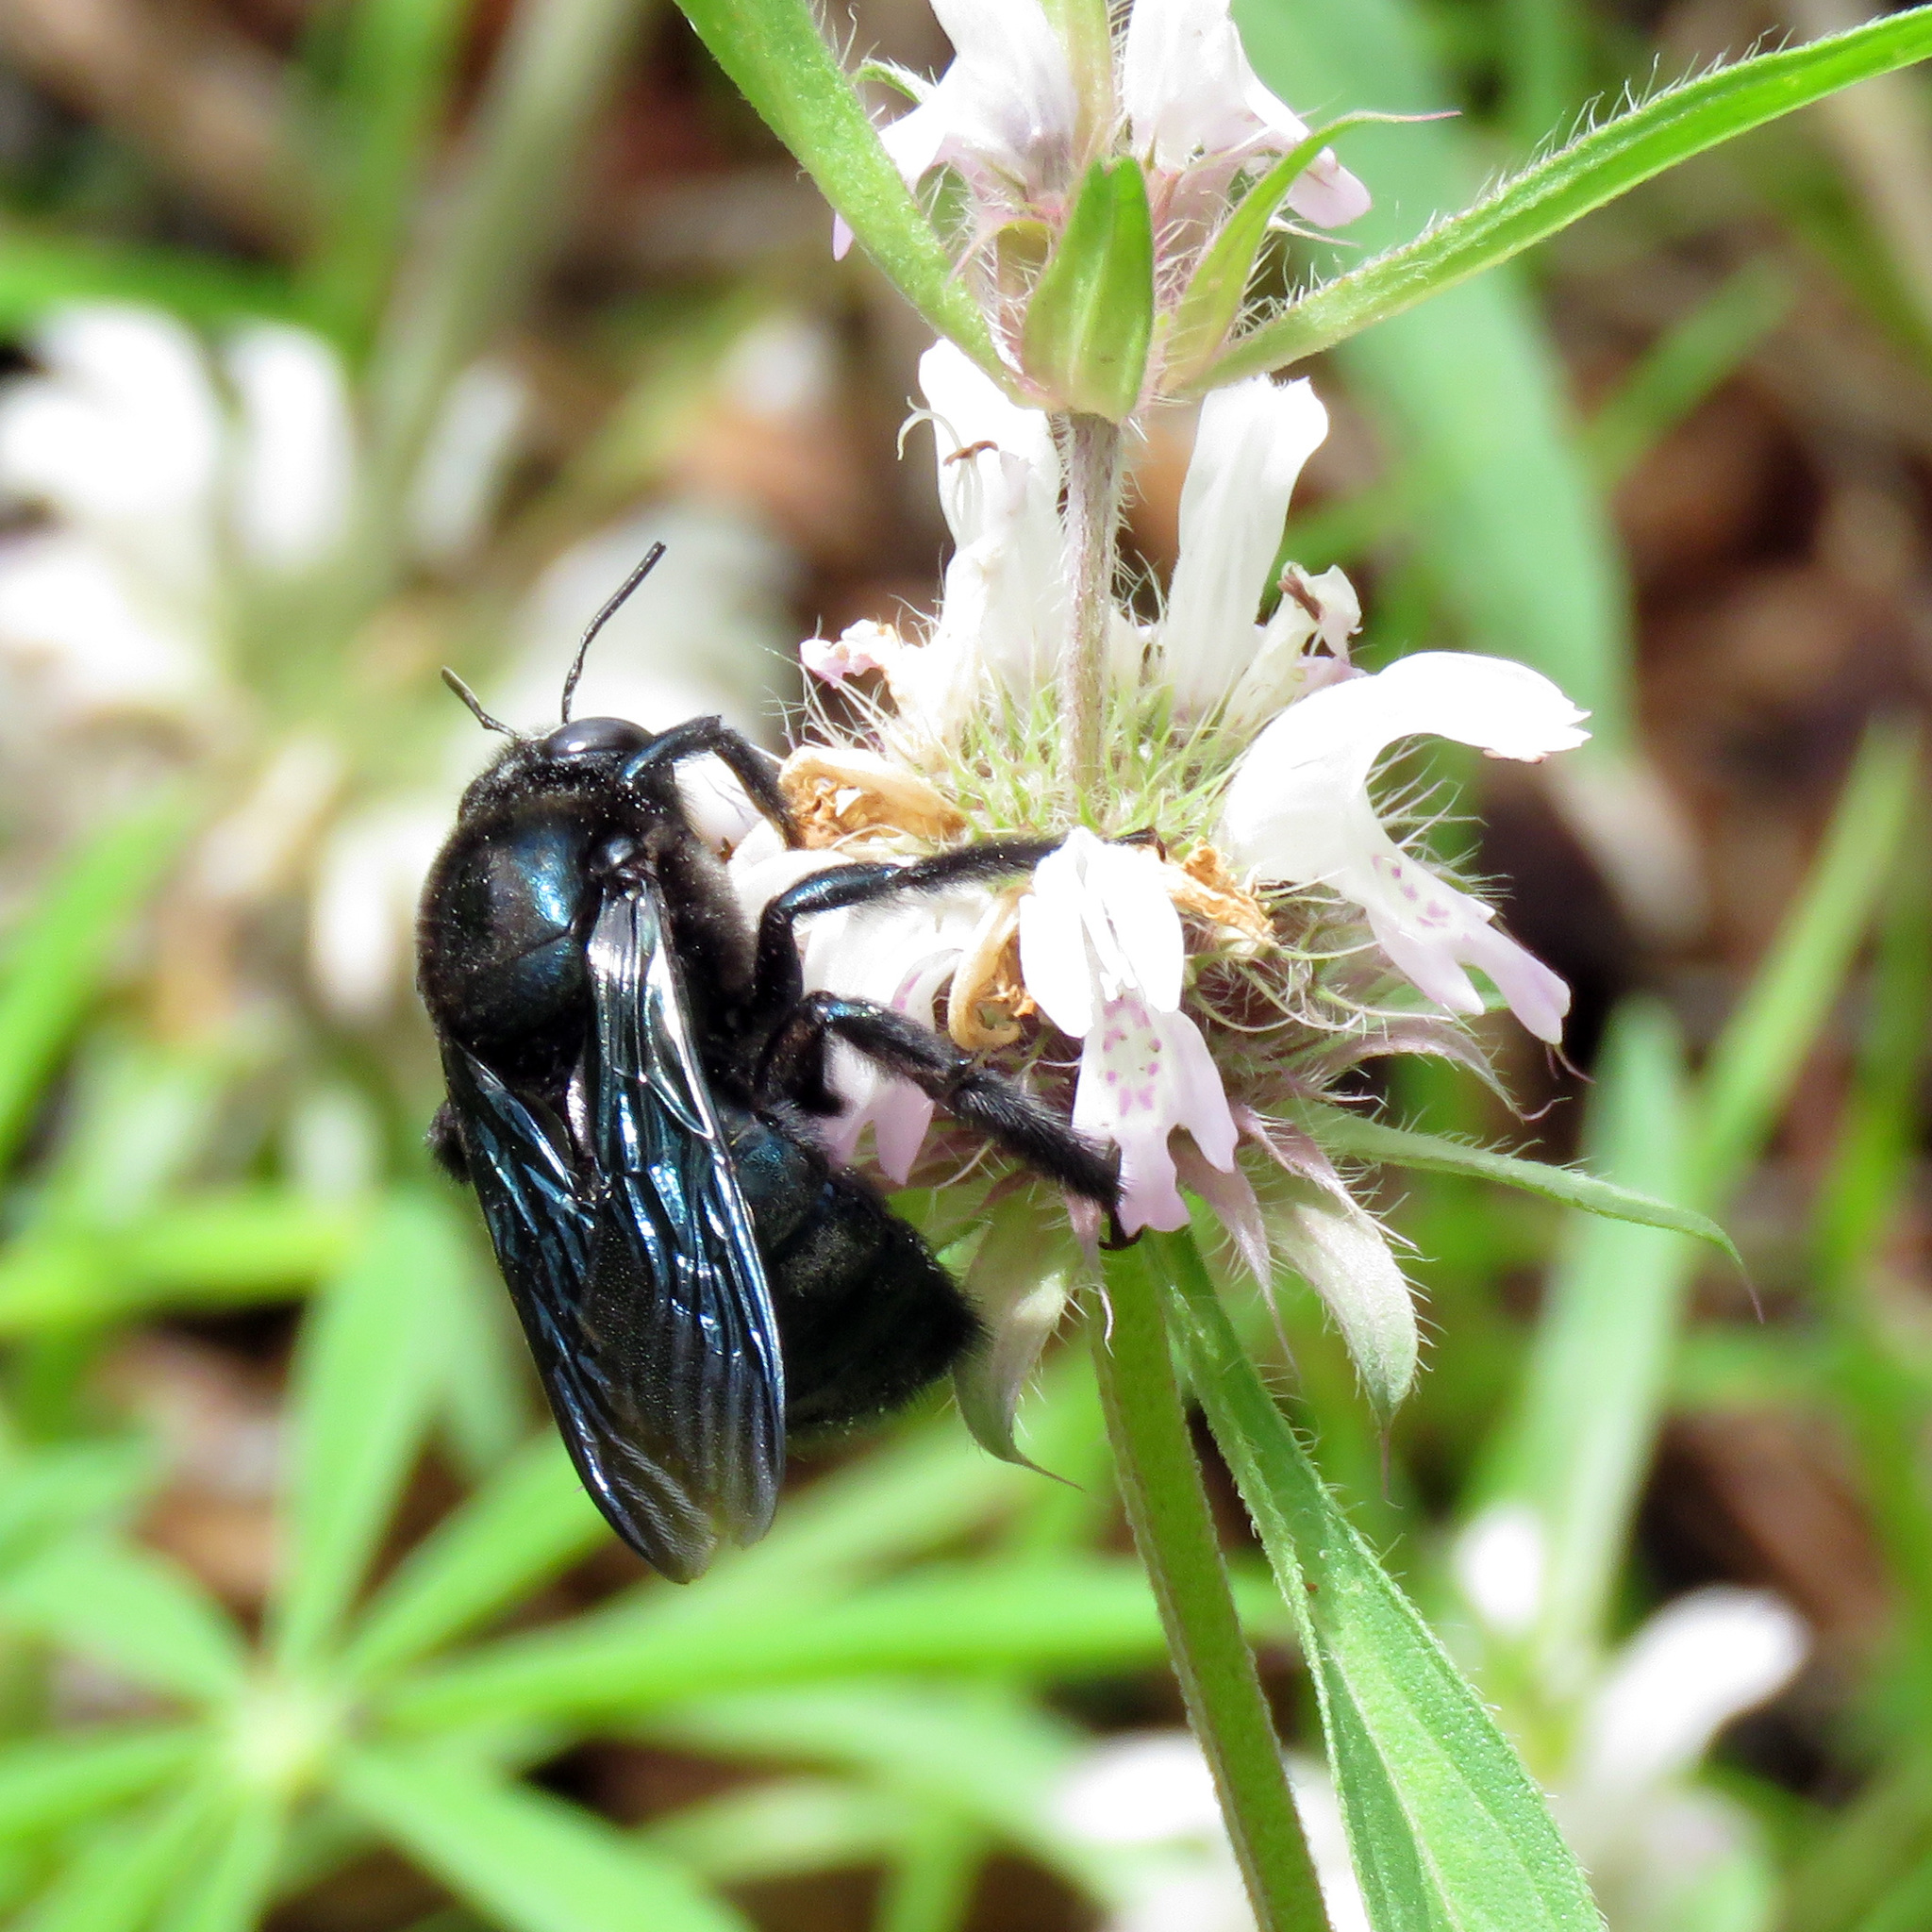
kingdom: Animalia
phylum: Arthropoda
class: Insecta
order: Hymenoptera
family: Apidae
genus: Xylocopa
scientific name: Xylocopa californica
